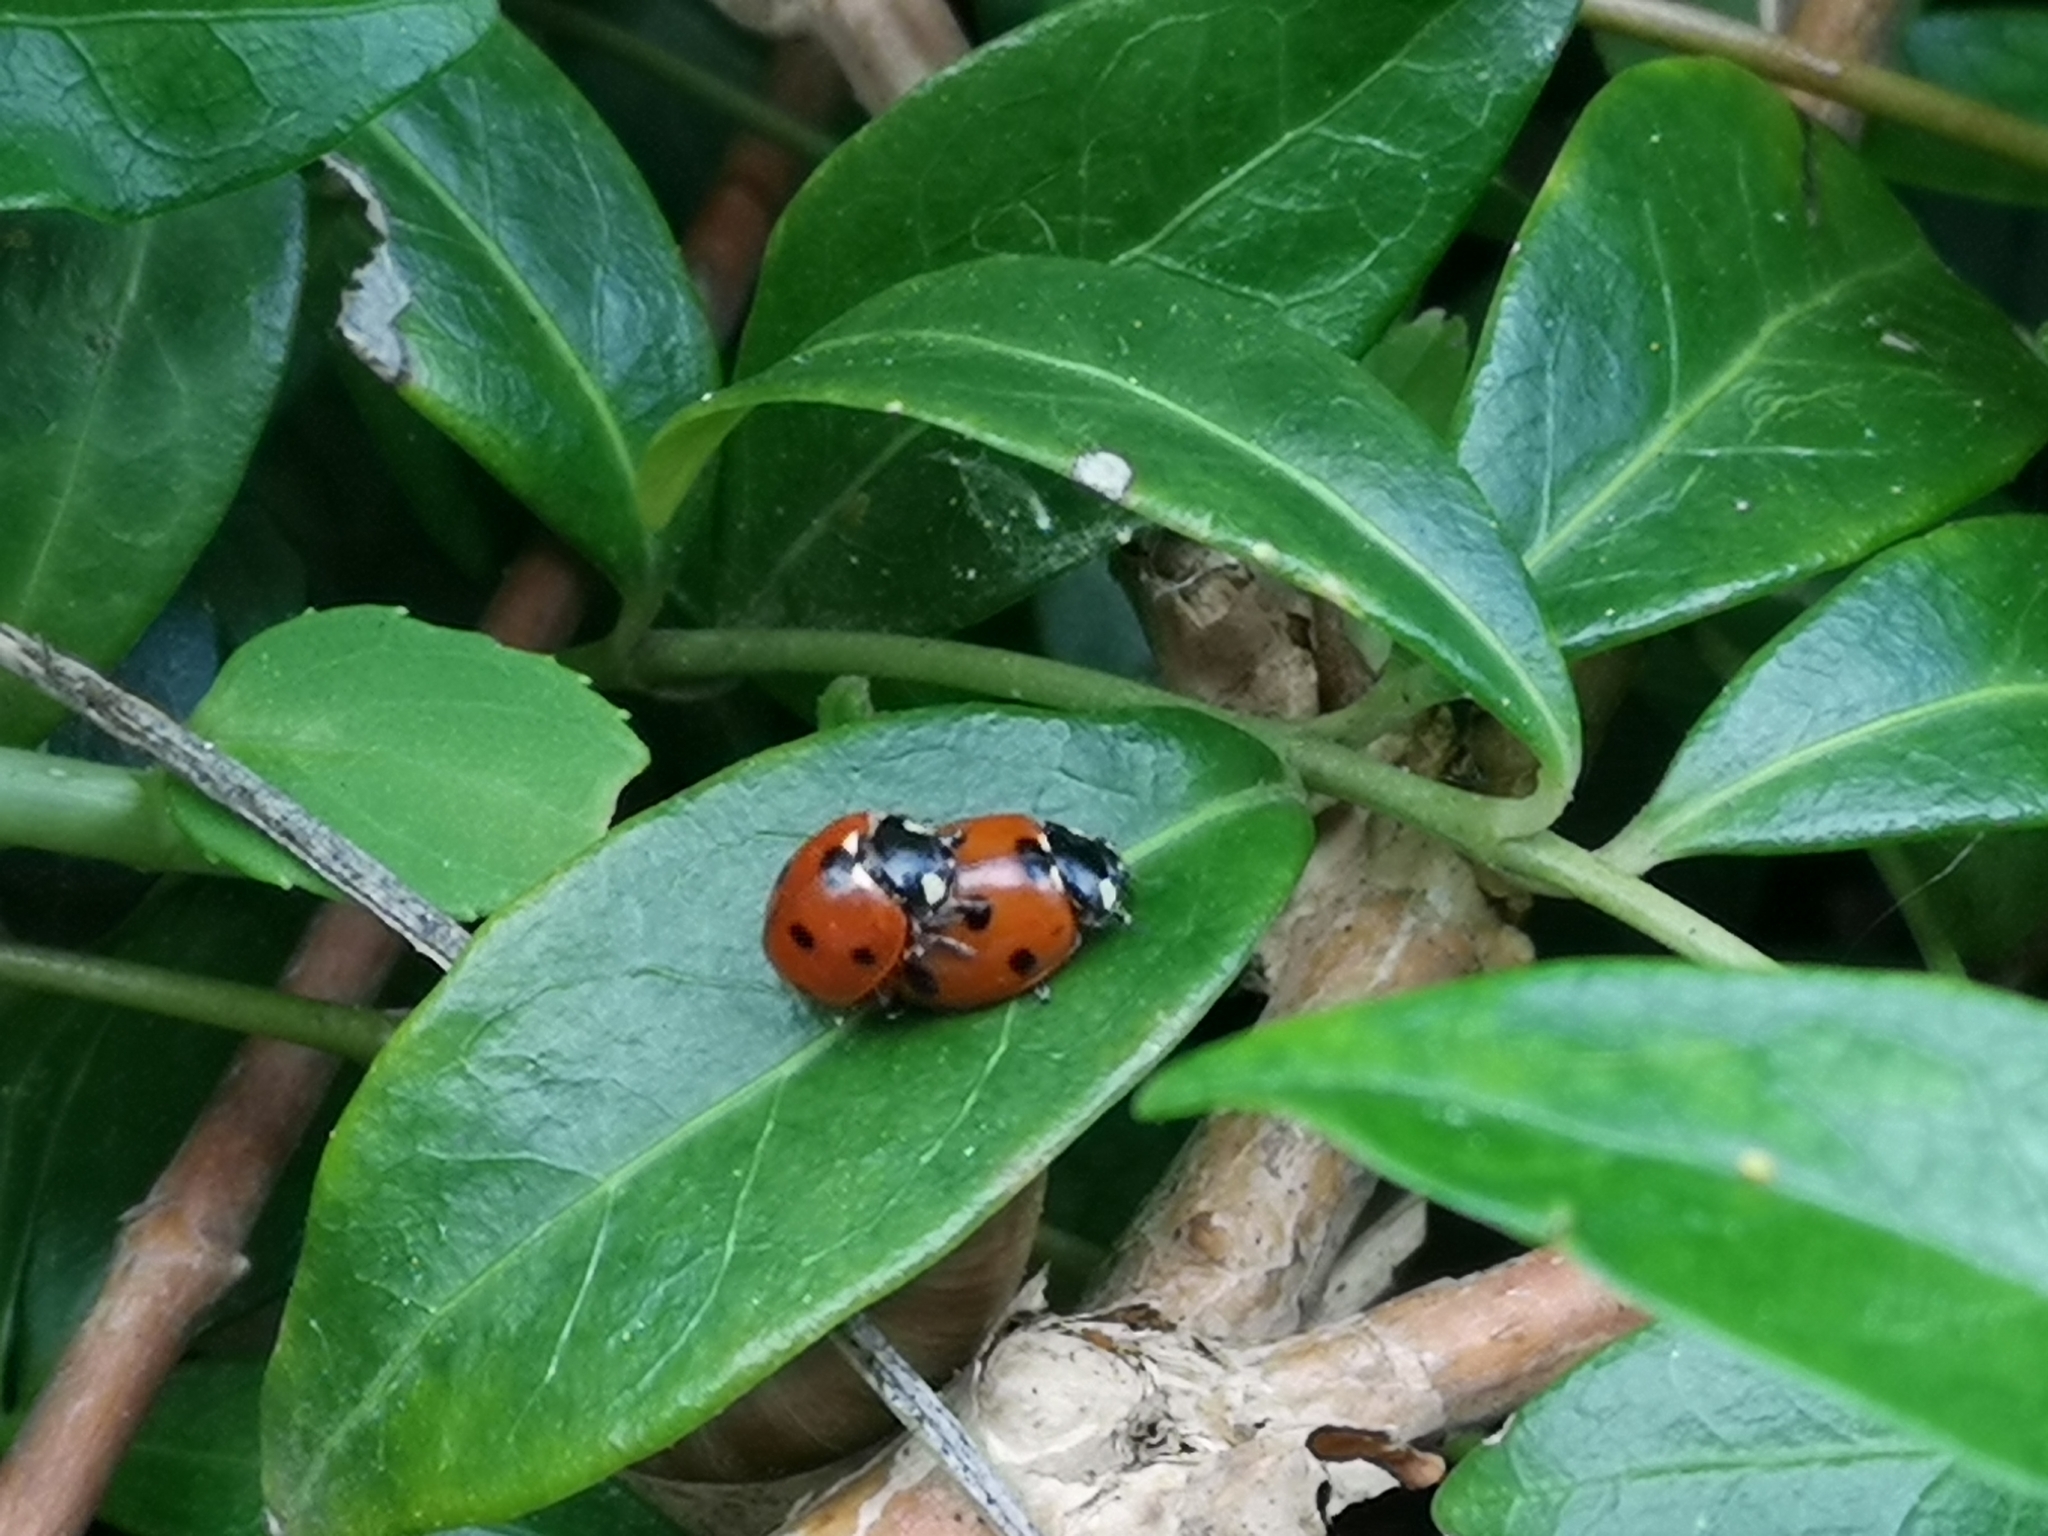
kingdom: Animalia
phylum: Arthropoda
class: Insecta
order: Coleoptera
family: Coccinellidae
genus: Coccinella
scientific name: Coccinella septempunctata
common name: Sevenspotted lady beetle
